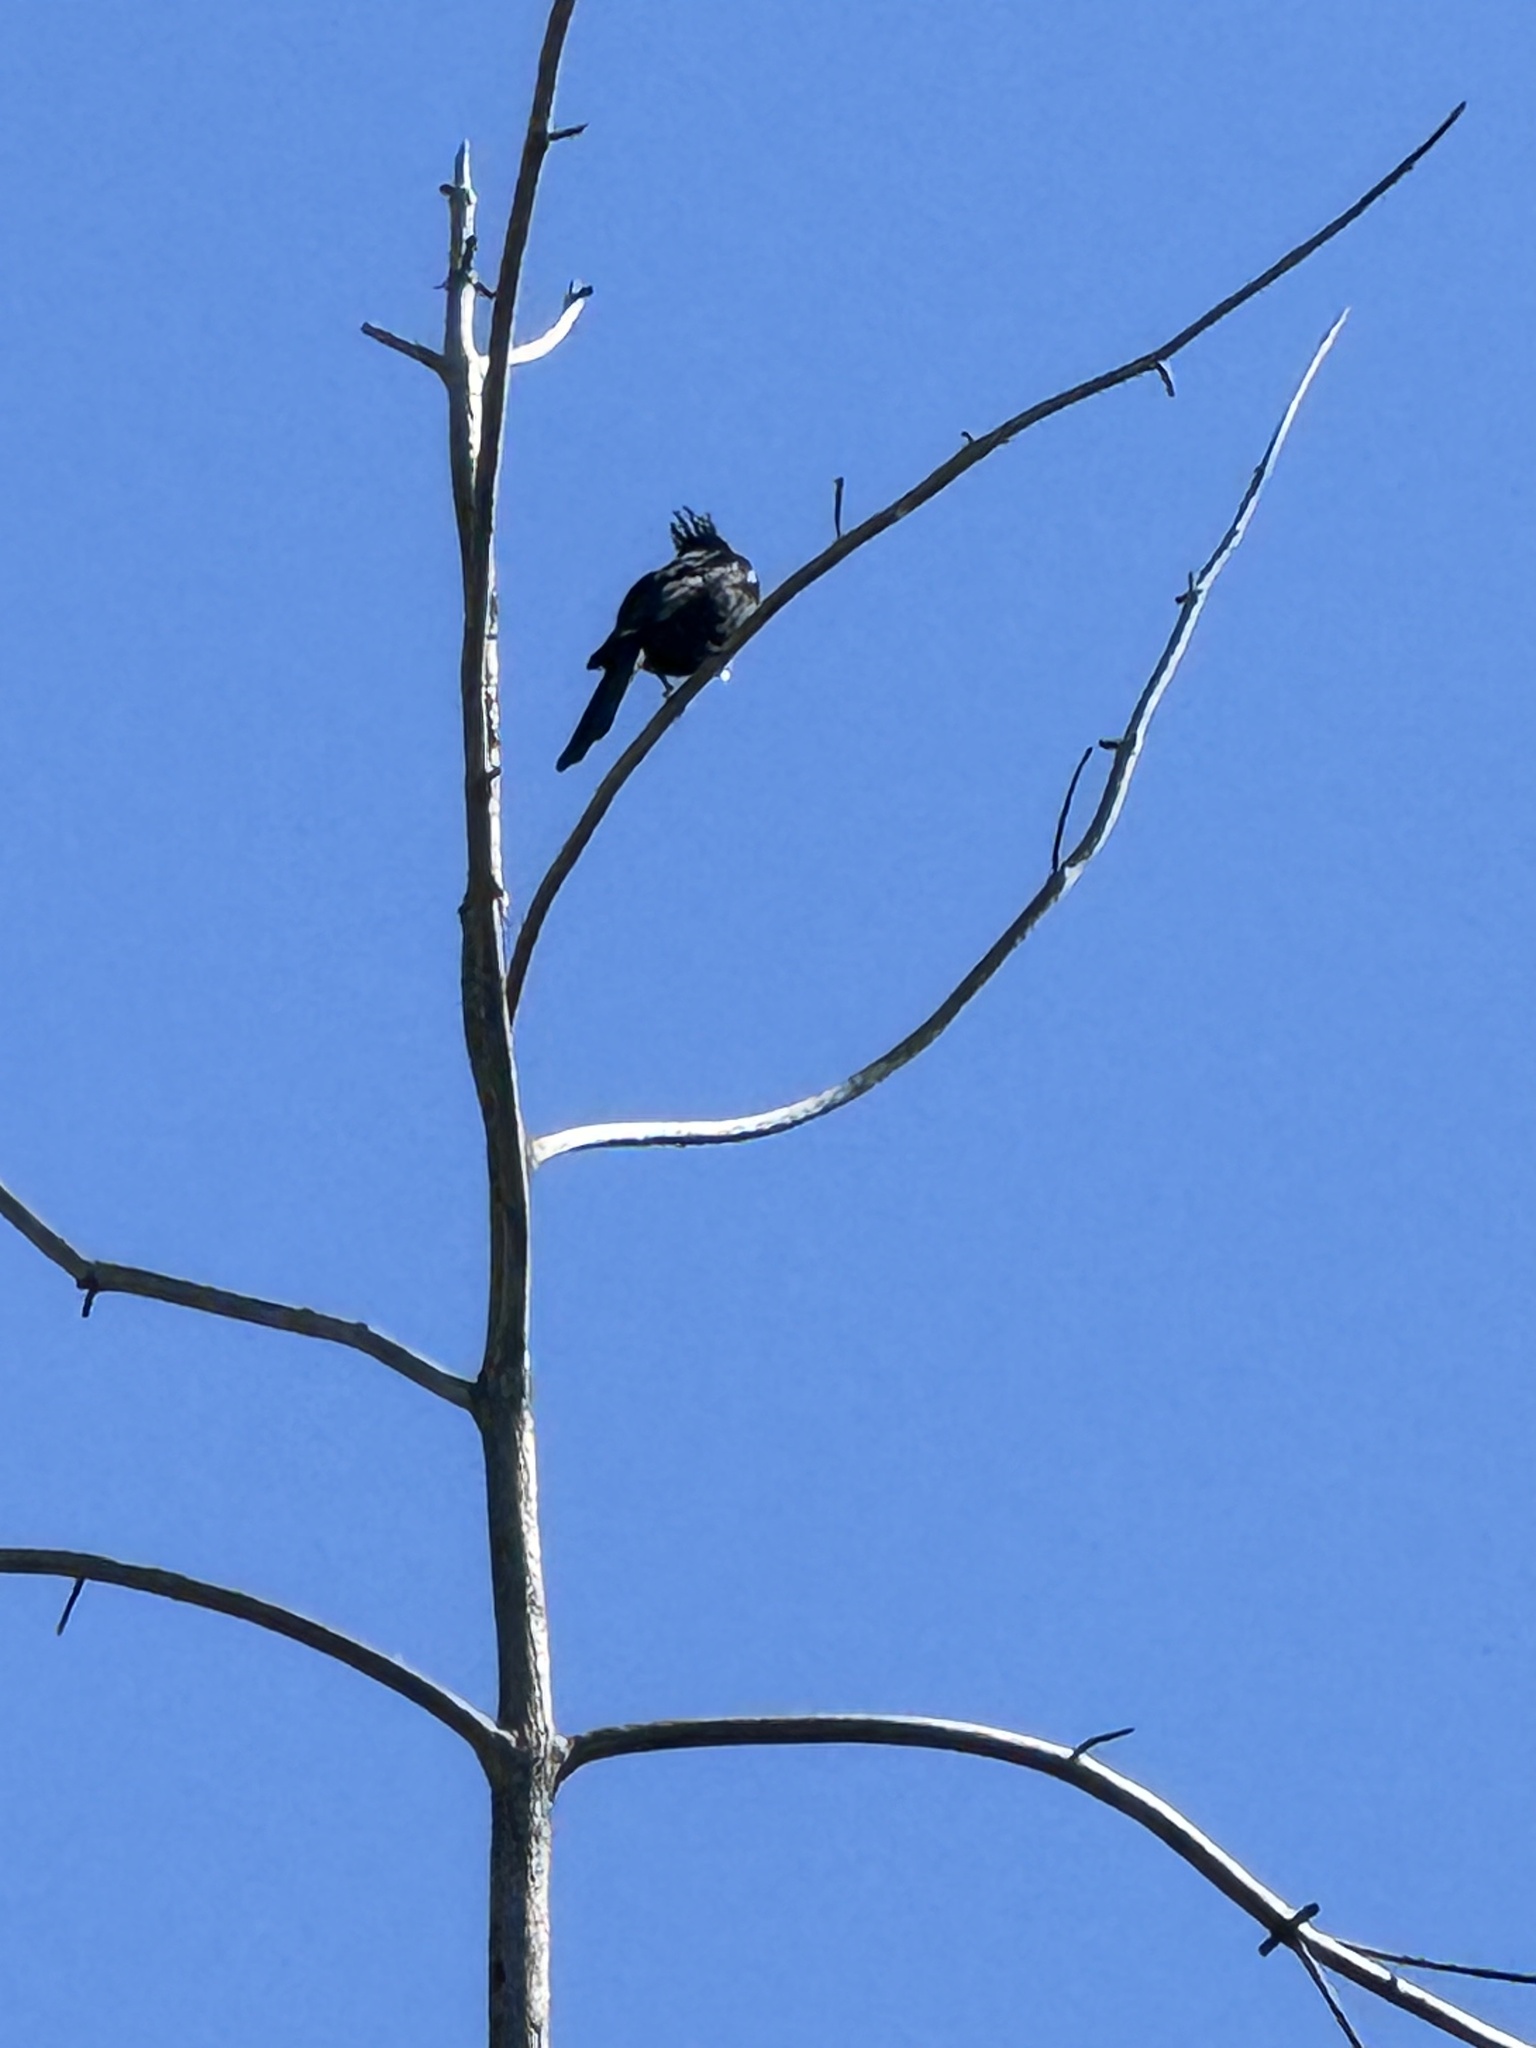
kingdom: Animalia
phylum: Chordata
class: Aves
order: Passeriformes
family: Ptilogonatidae
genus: Phainopepla
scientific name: Phainopepla nitens
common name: Phainopepla
